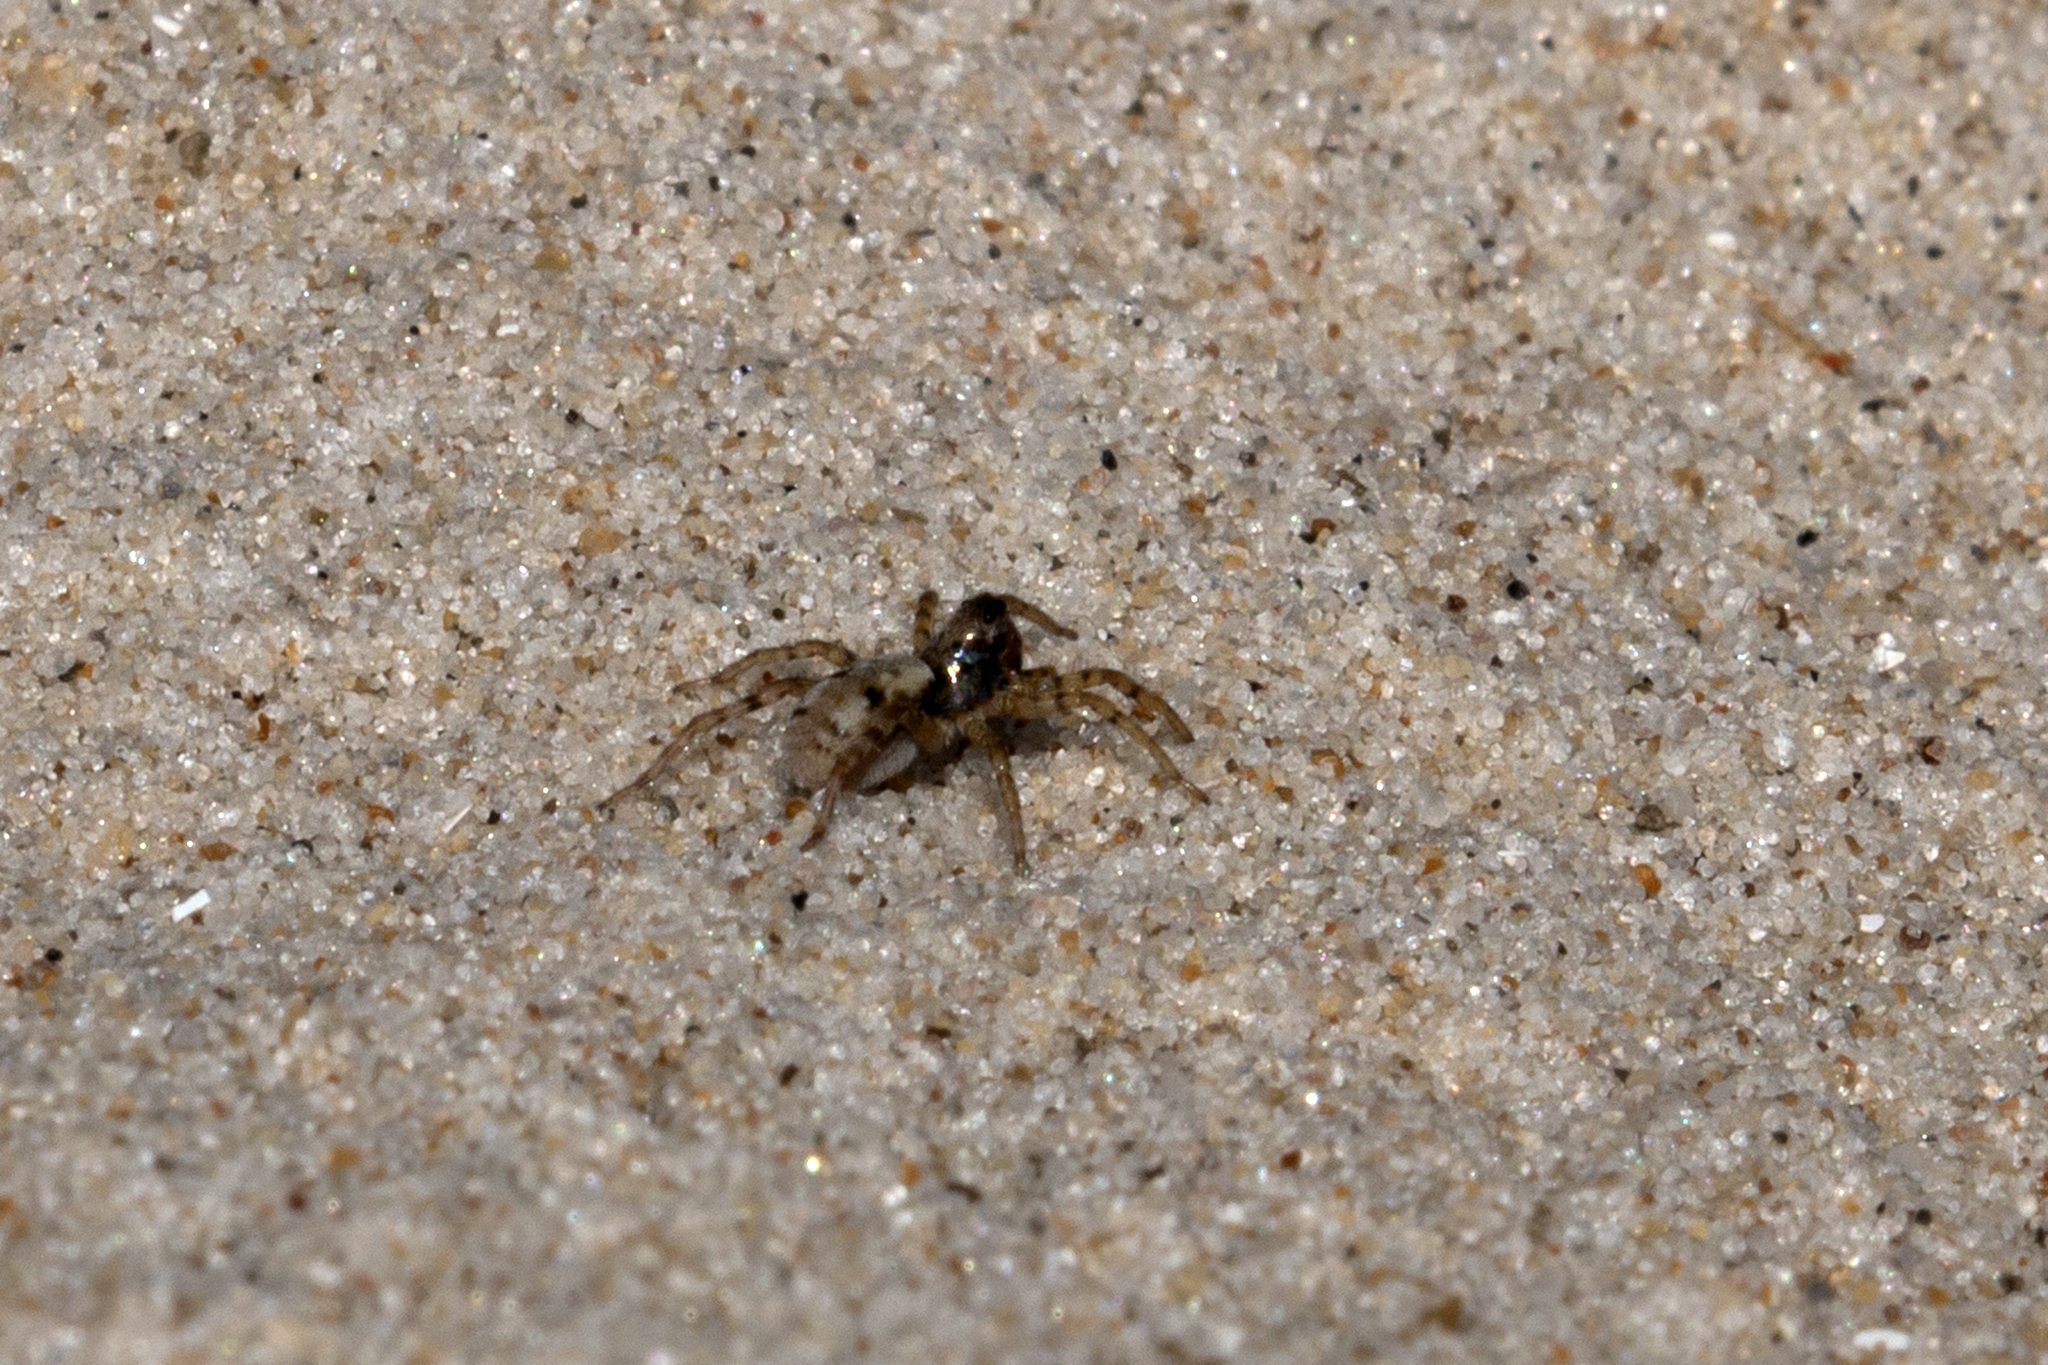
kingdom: Animalia
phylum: Arthropoda
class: Arachnida
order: Araneae
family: Lycosidae
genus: Arctosa
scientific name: Arctosa perita
